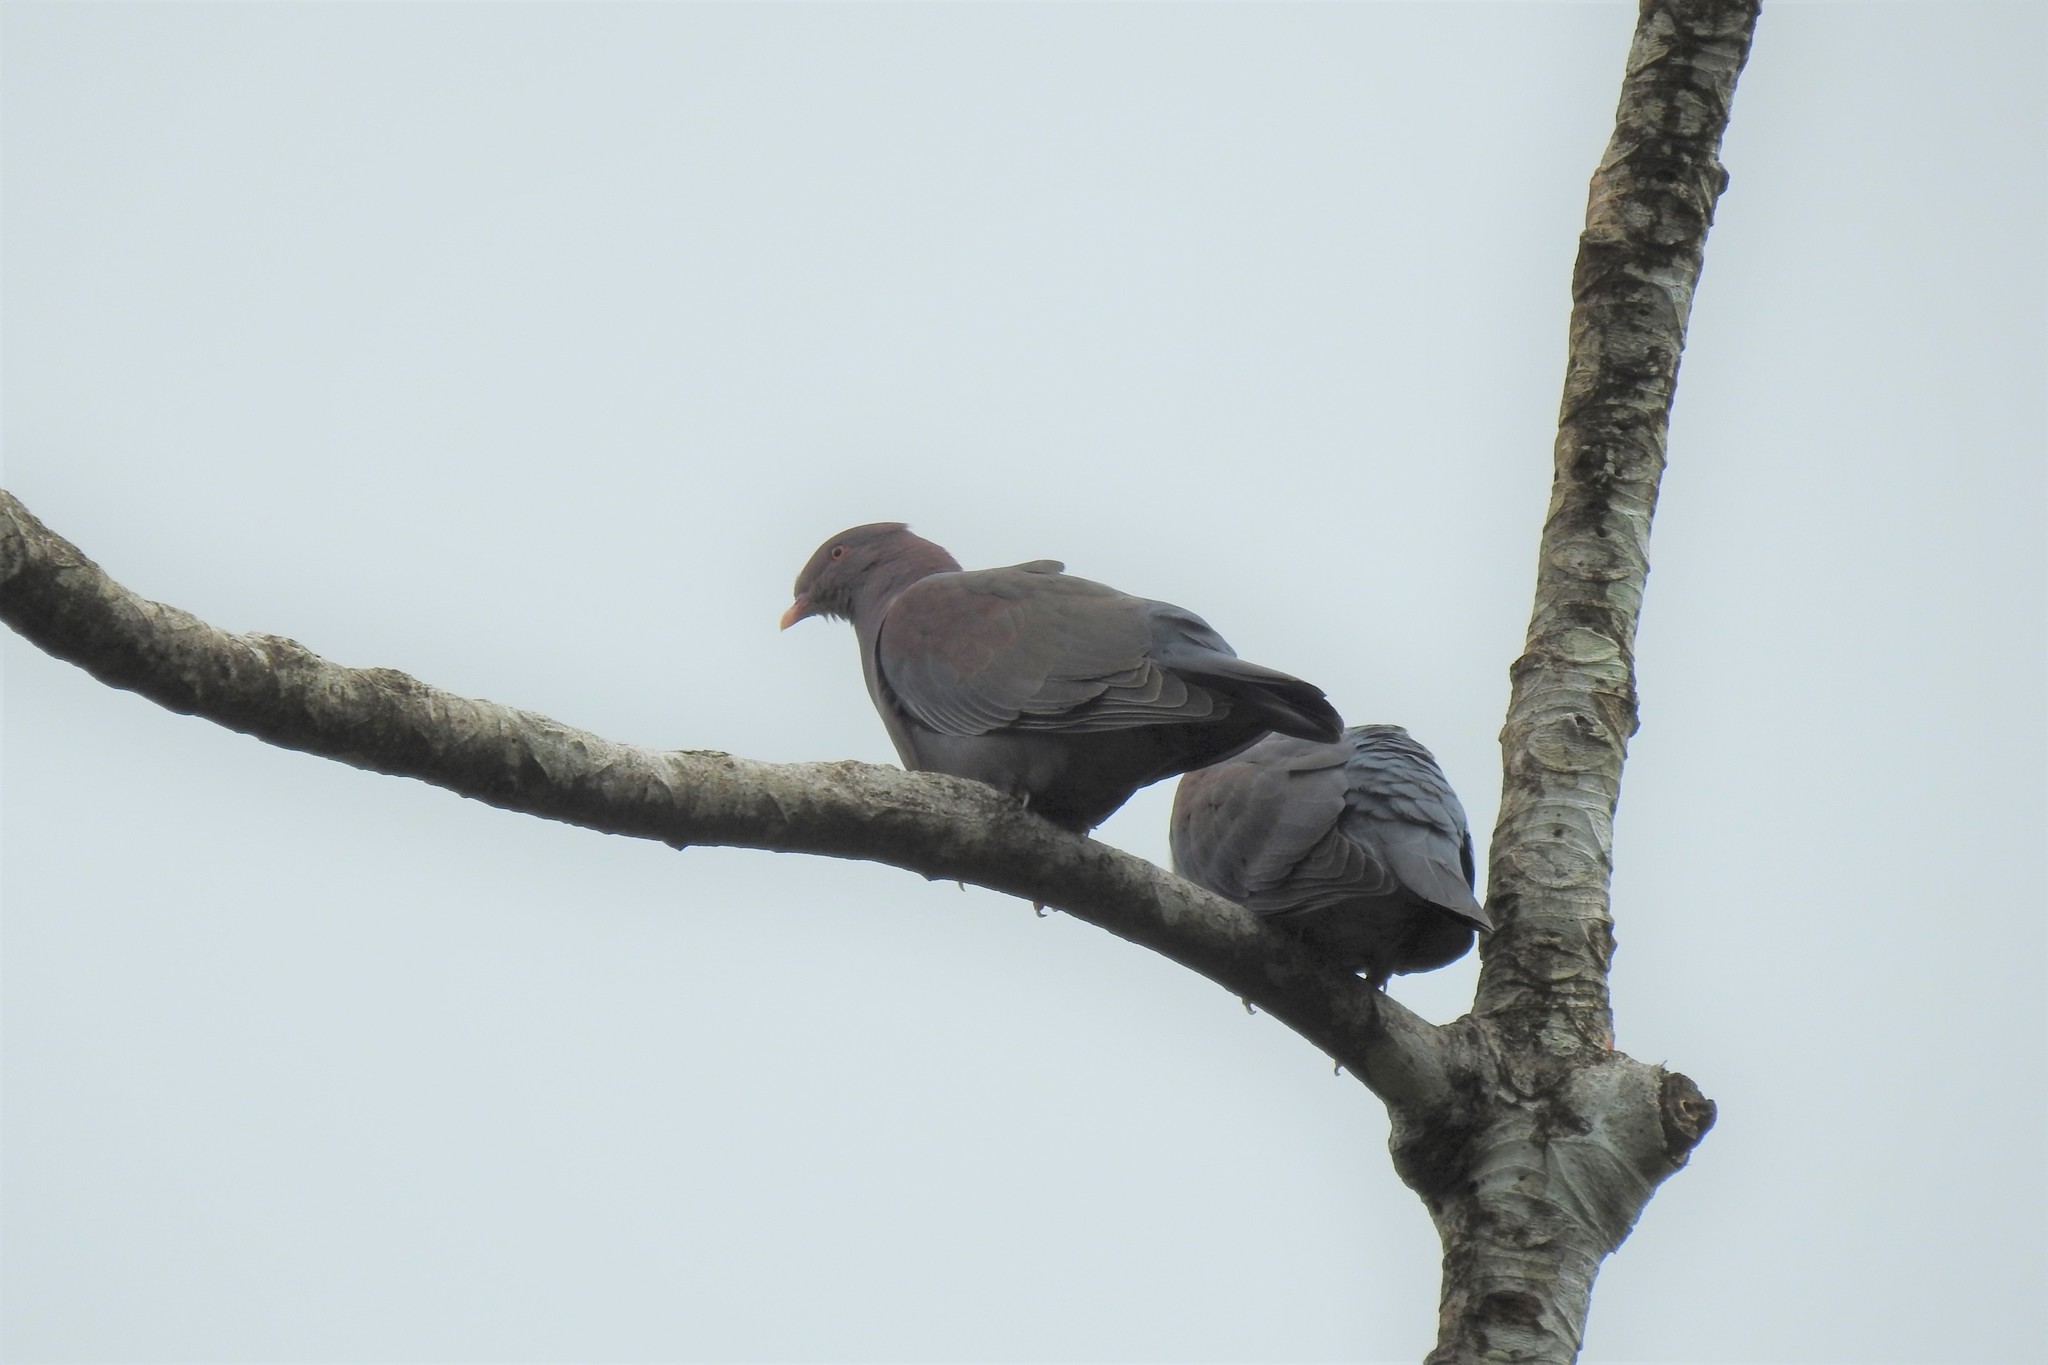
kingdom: Animalia
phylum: Chordata
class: Aves
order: Columbiformes
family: Columbidae
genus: Patagioenas
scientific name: Patagioenas flavirostris
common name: Red-billed pigeon
